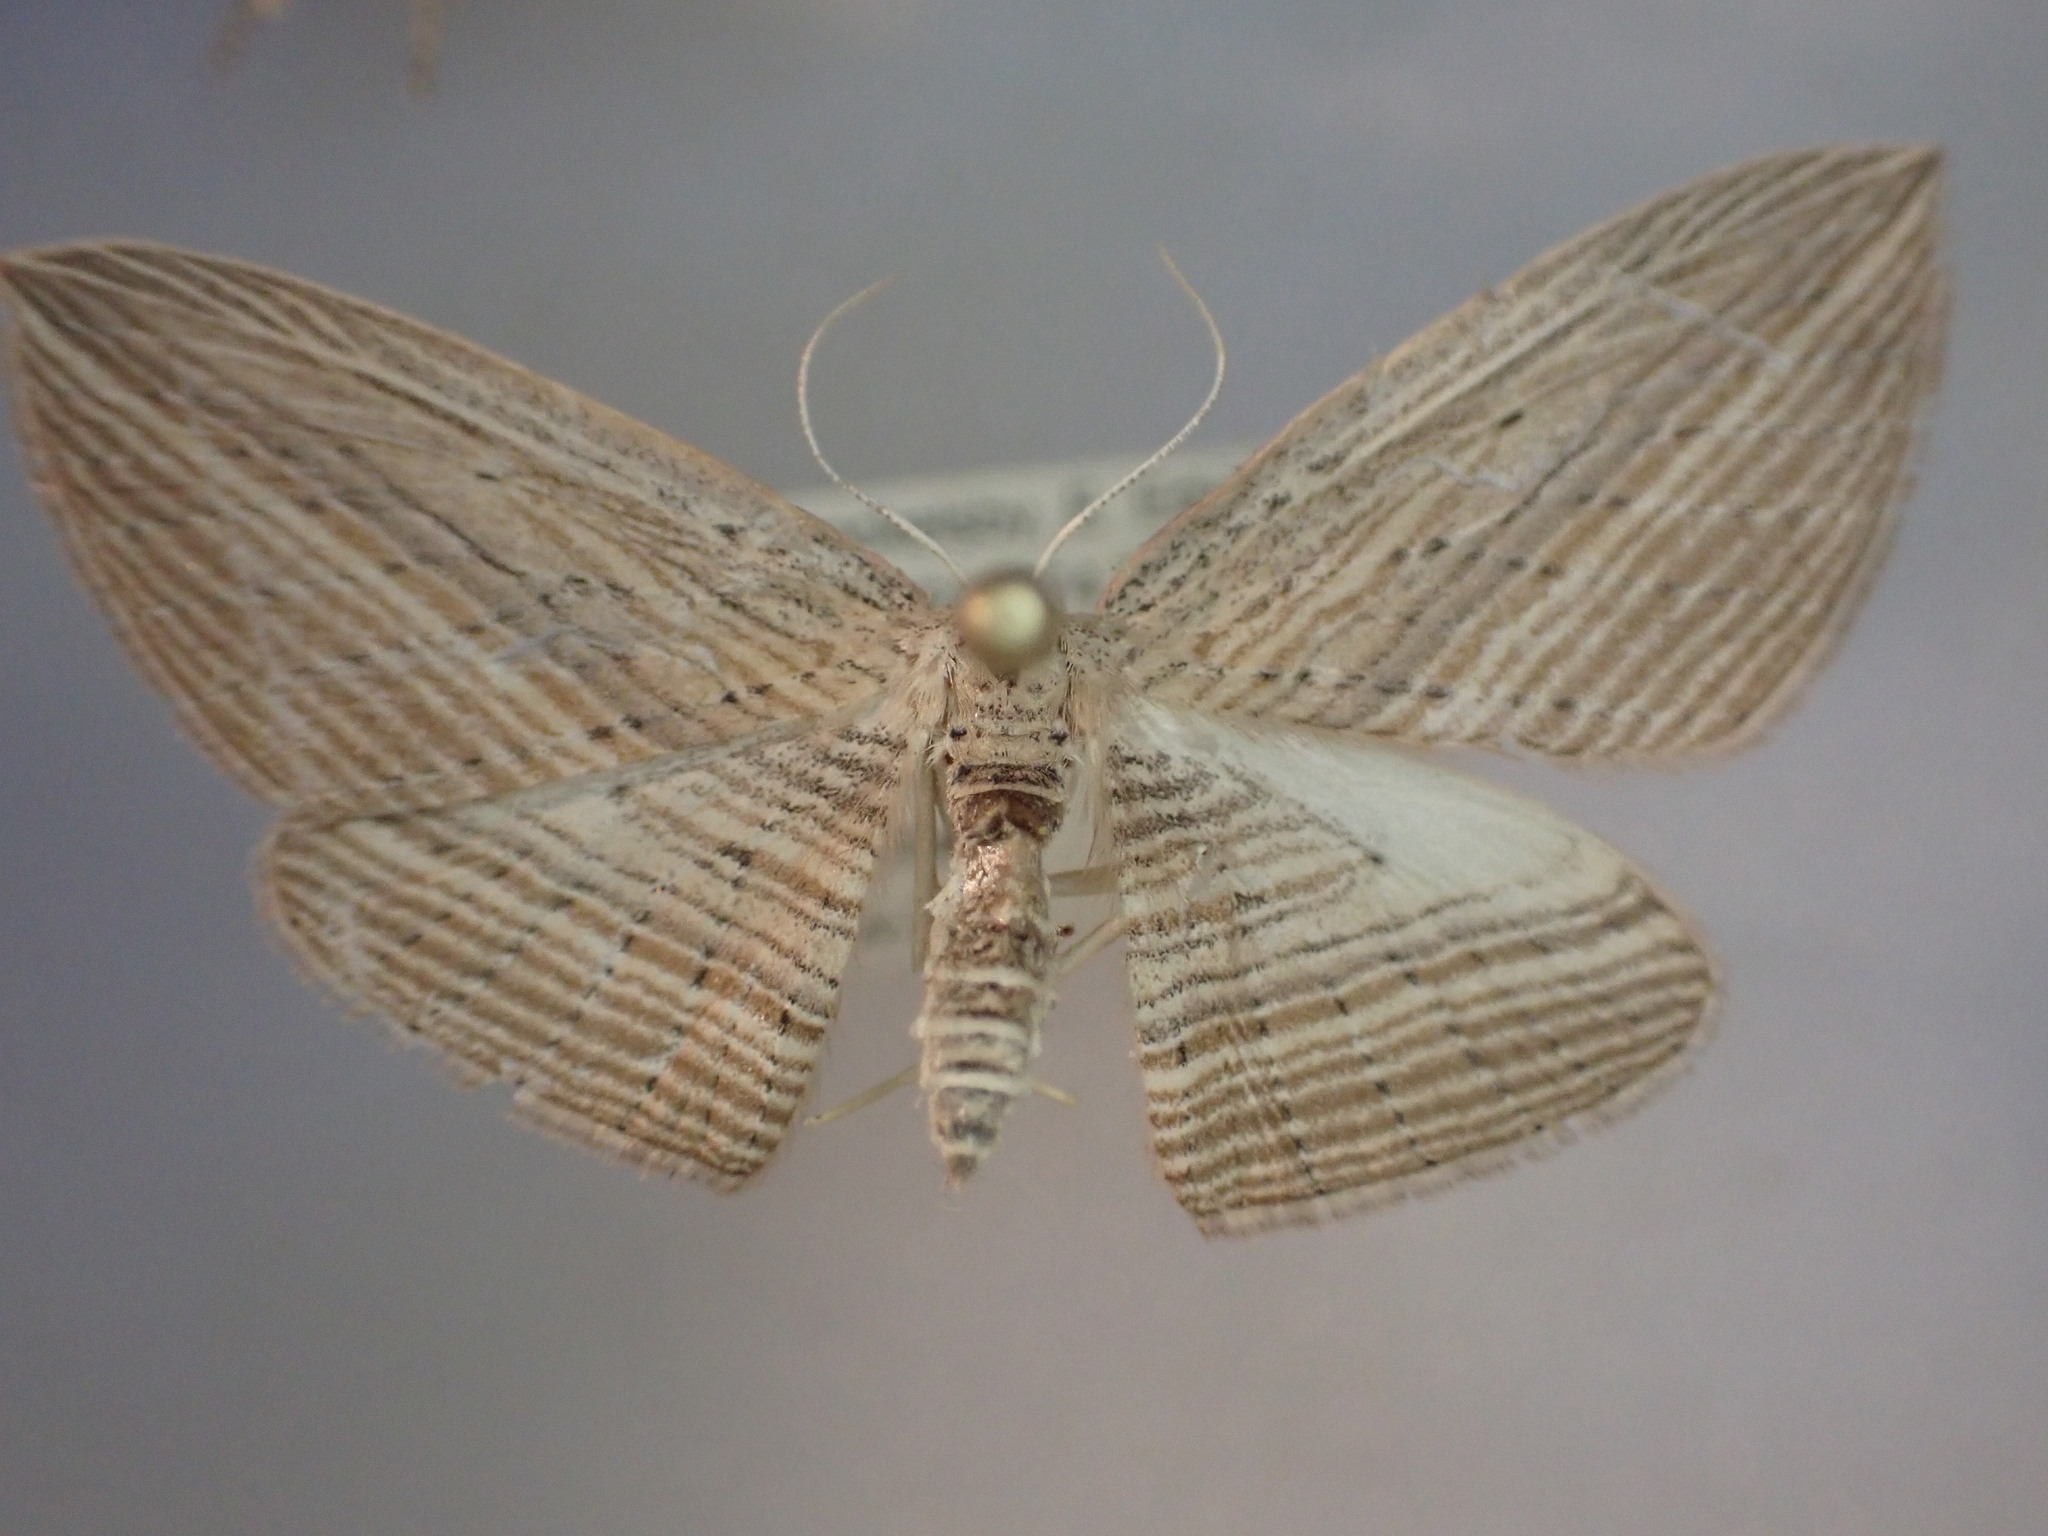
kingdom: Animalia
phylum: Arthropoda
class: Insecta
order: Lepidoptera
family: Geometridae
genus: Epiphryne
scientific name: Epiphryne verriculata
